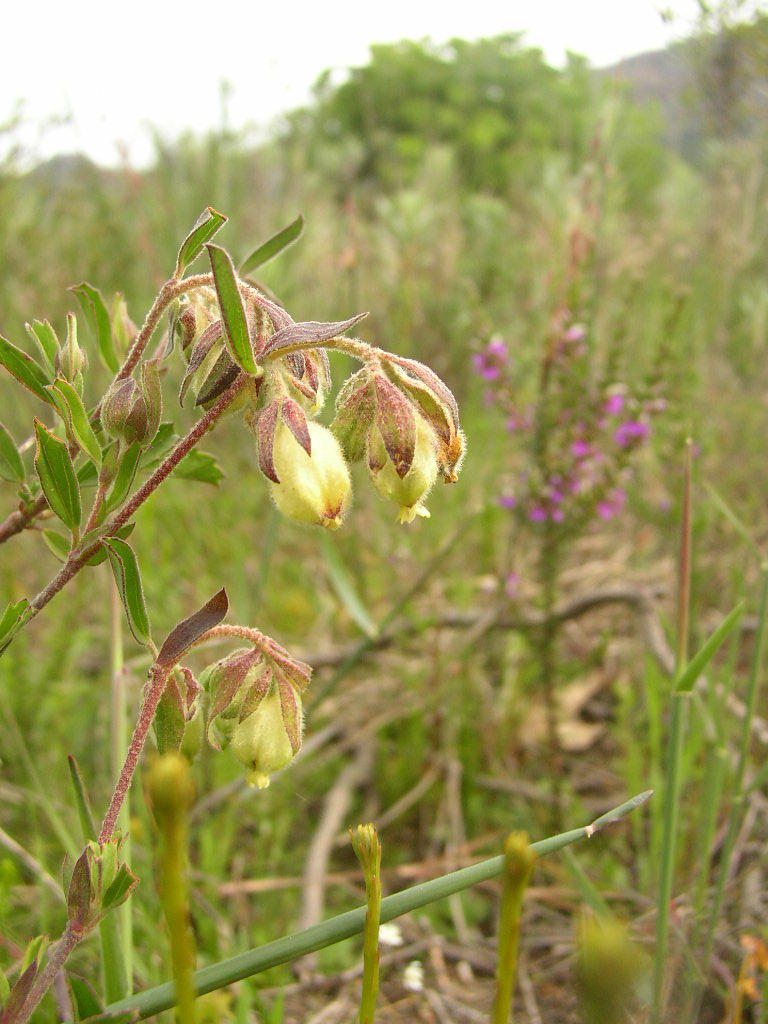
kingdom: Plantae
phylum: Tracheophyta
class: Magnoliopsida
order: Malvales
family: Malvaceae
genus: Hermannia
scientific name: Hermannia hyssopifolia
